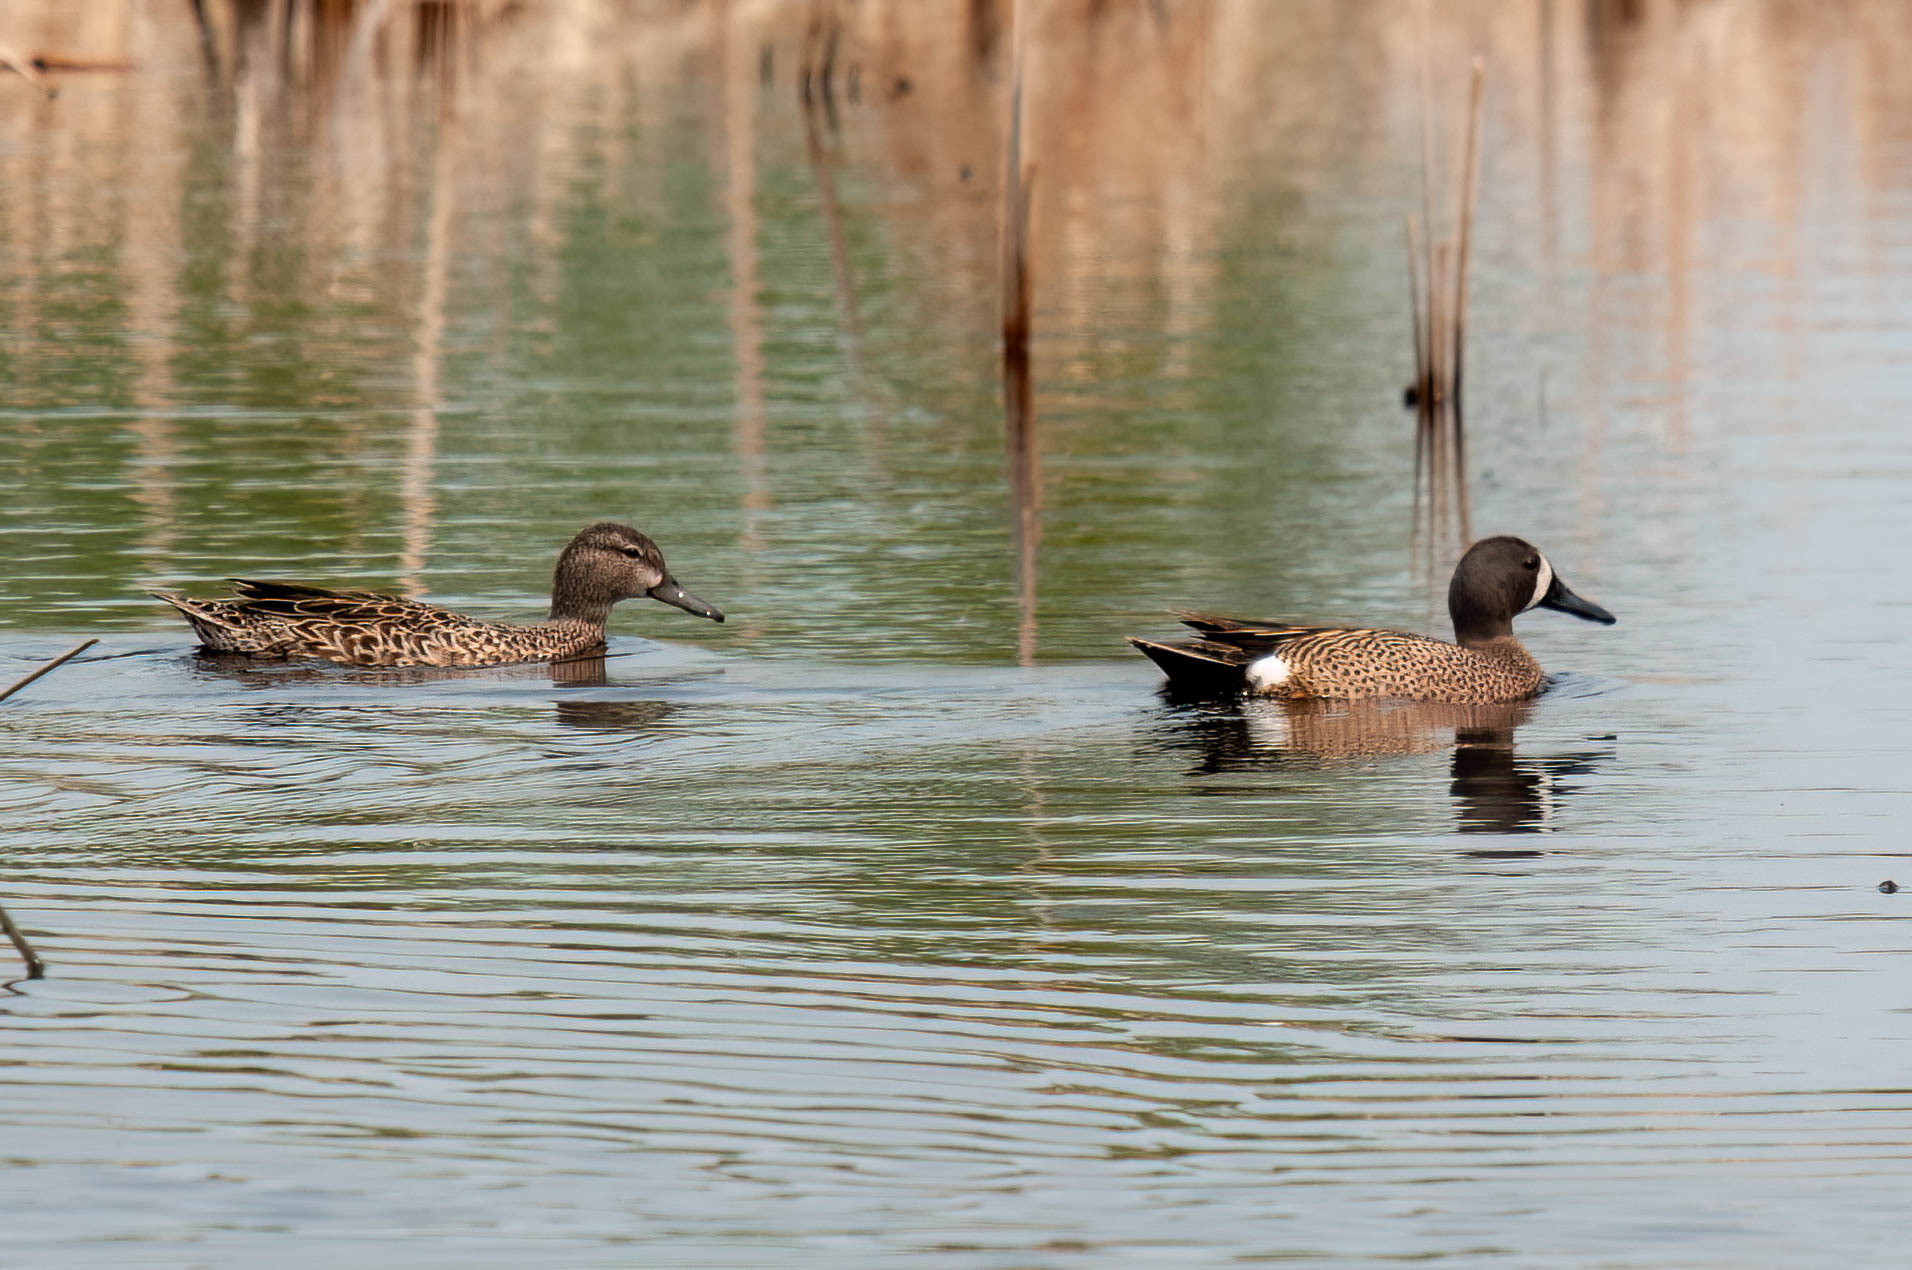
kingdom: Animalia
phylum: Chordata
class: Aves
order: Anseriformes
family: Anatidae
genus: Spatula
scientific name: Spatula discors
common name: Blue-winged teal
